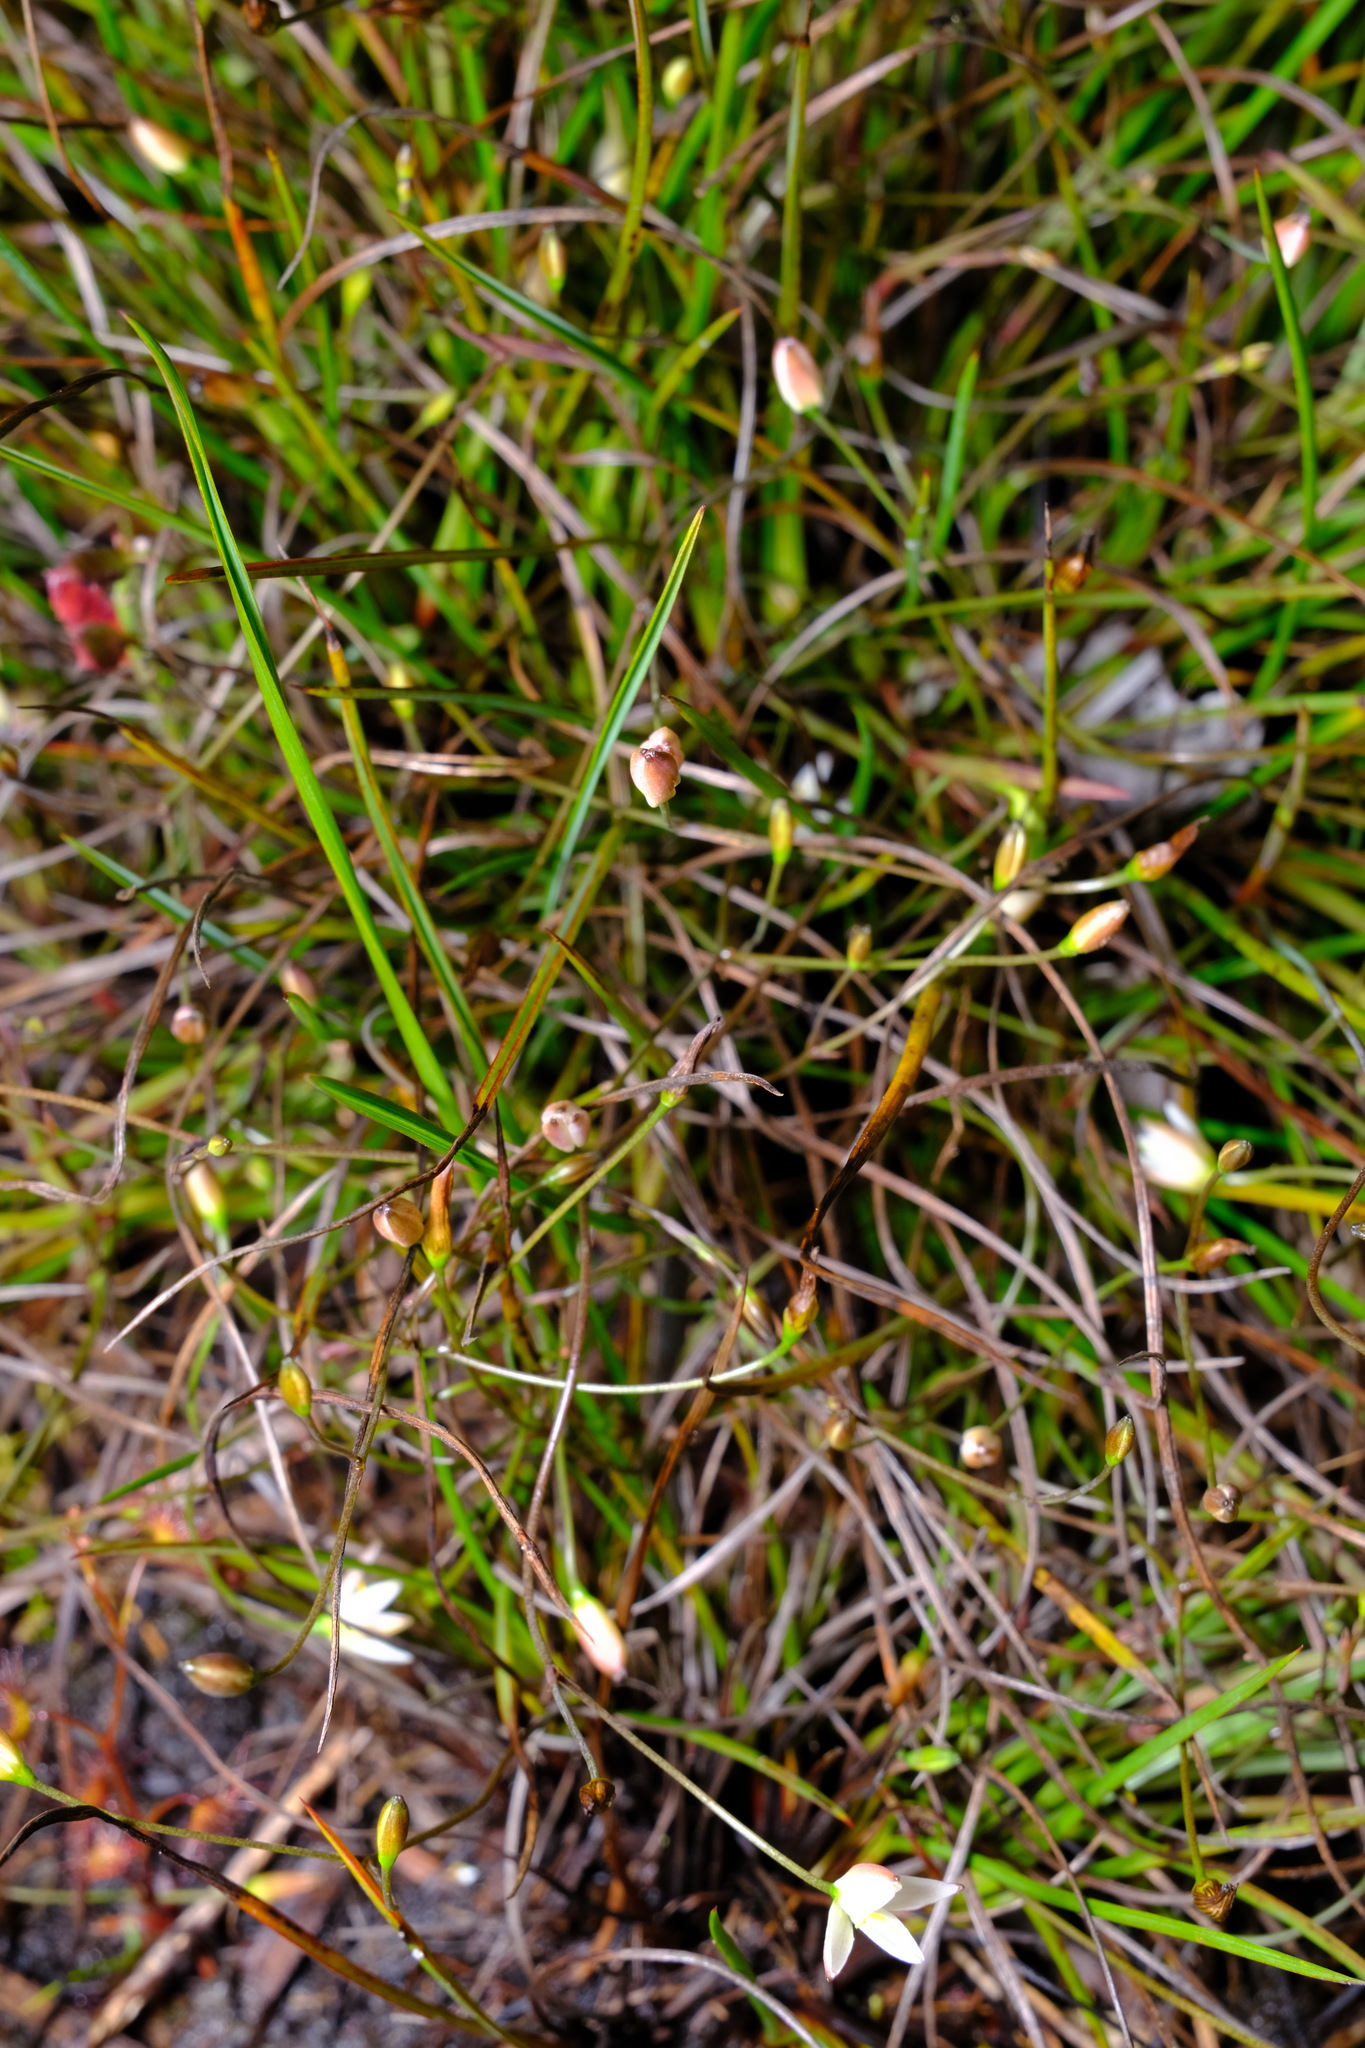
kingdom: Plantae
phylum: Tracheophyta
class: Liliopsida
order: Asparagales
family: Asphodelaceae
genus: Thelionema
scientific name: Thelionema caespitosum
